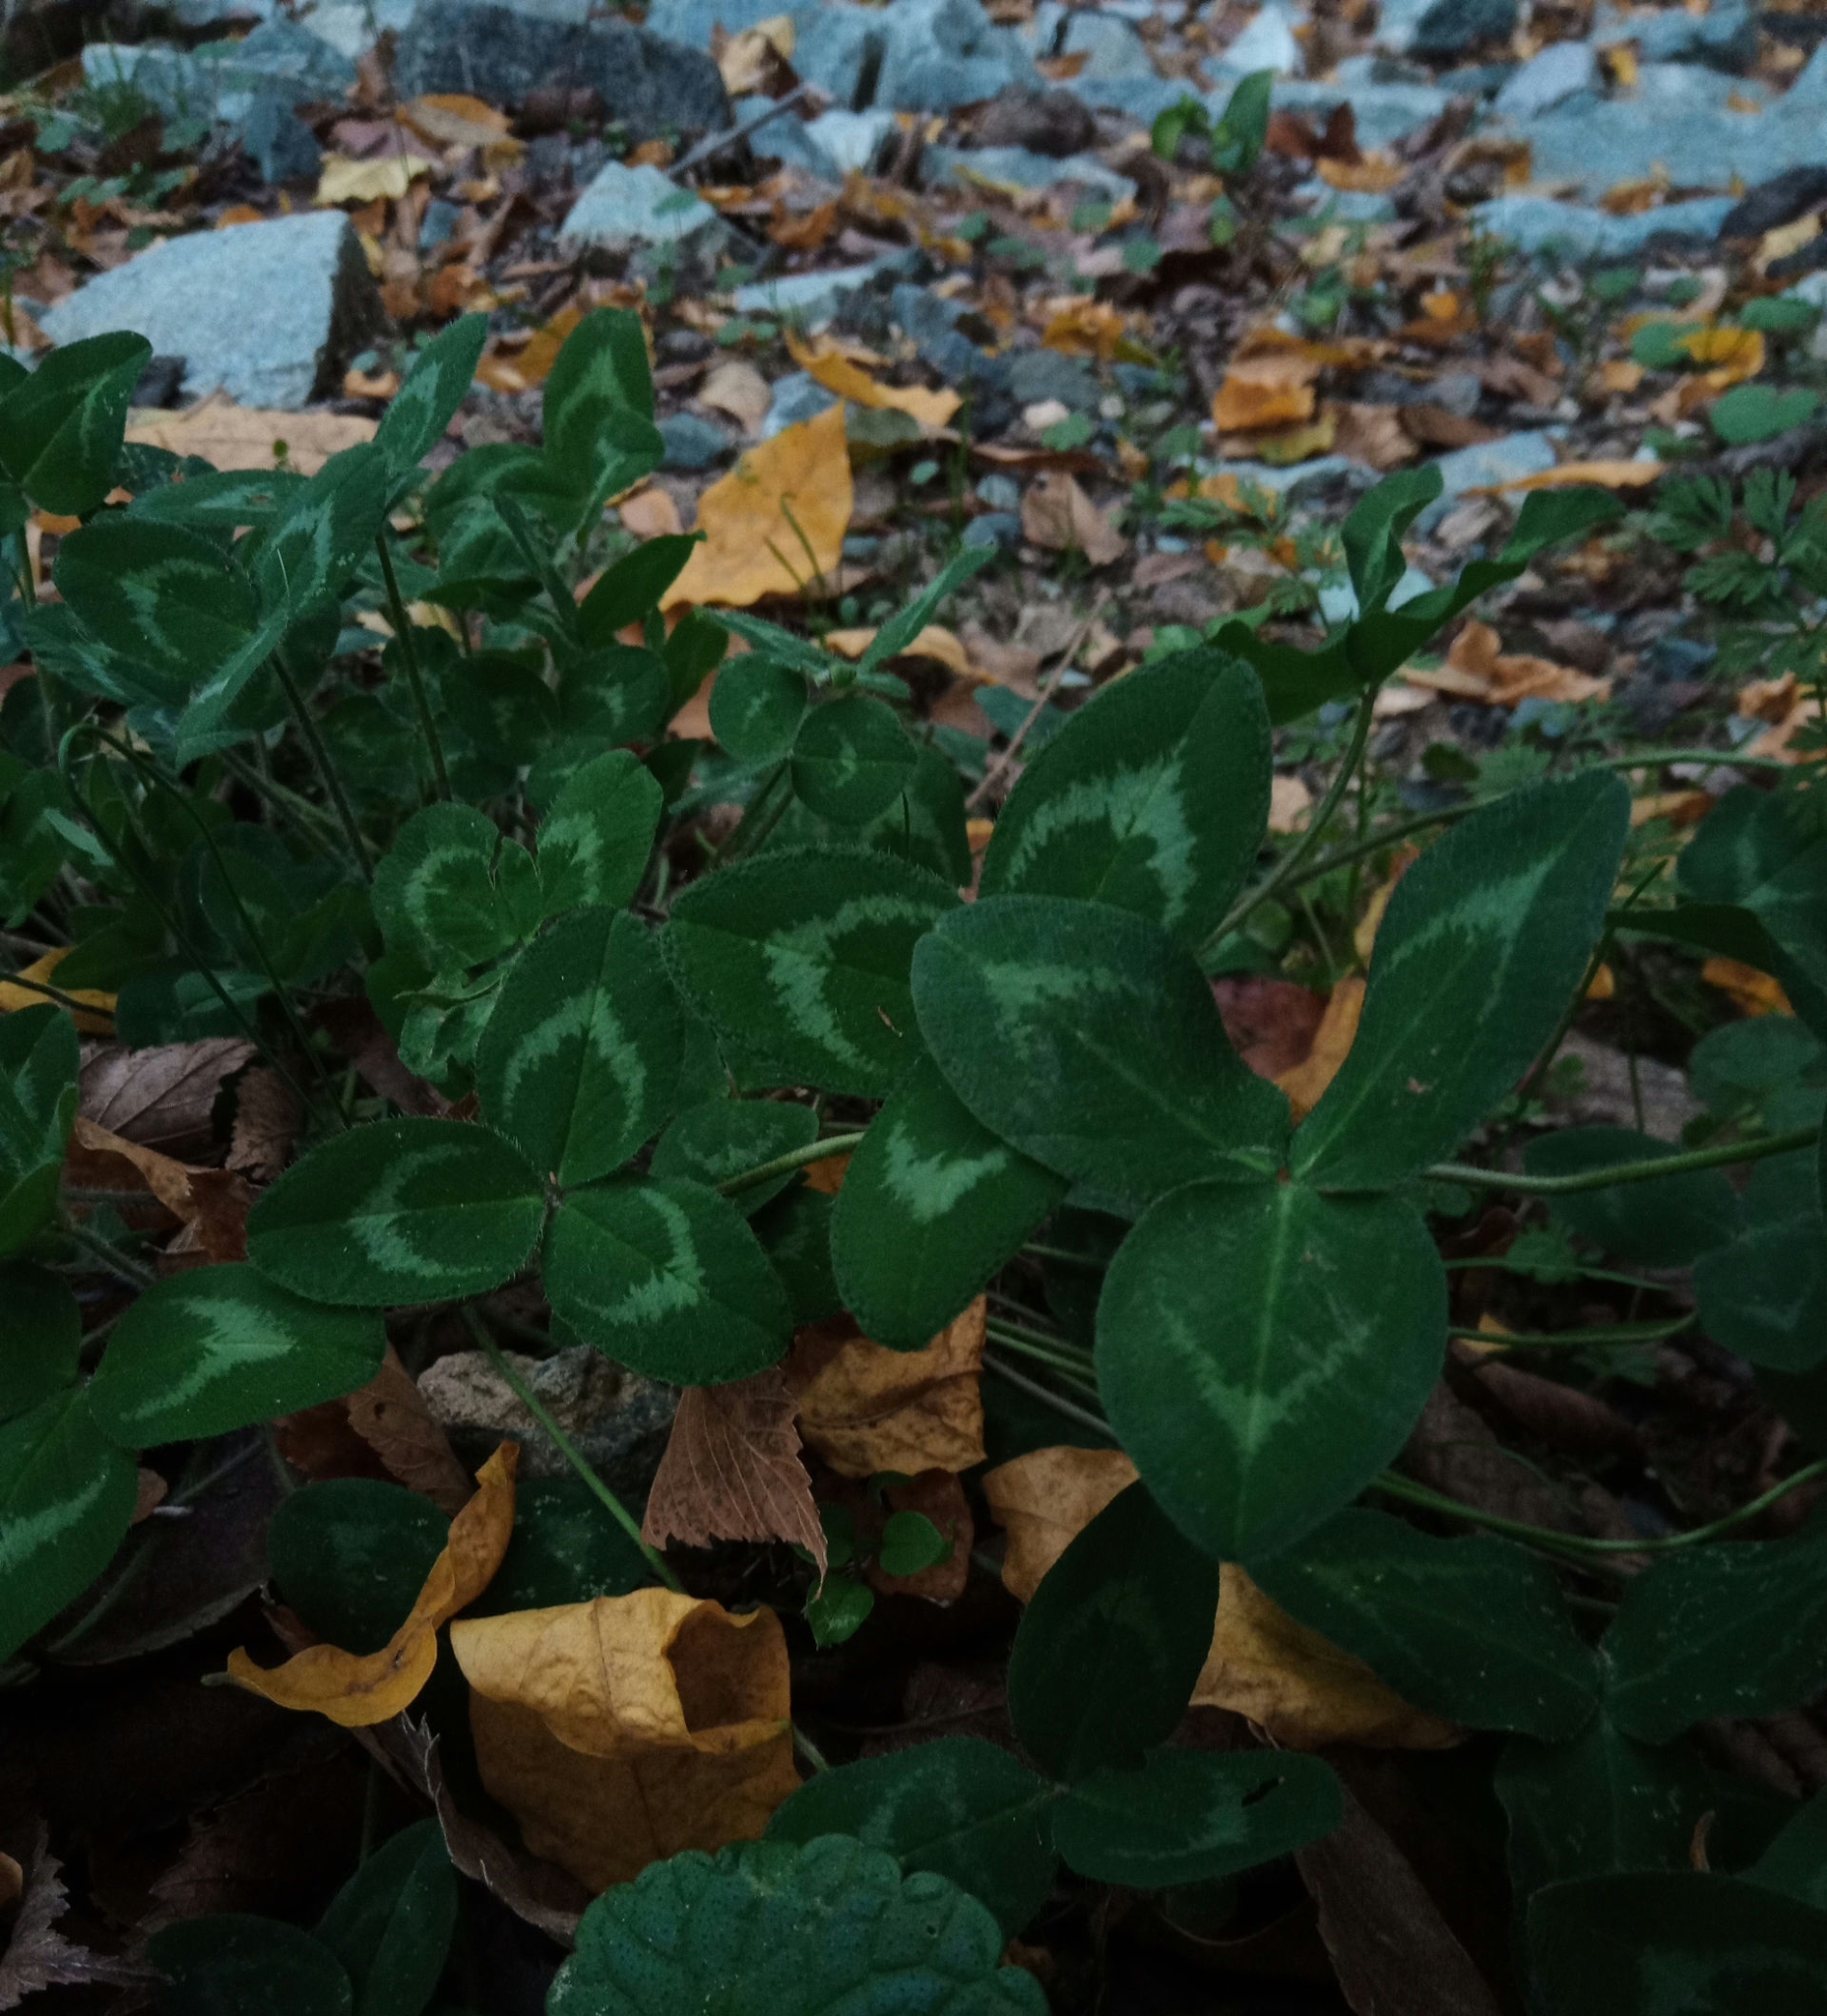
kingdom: Plantae
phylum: Tracheophyta
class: Magnoliopsida
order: Fabales
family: Fabaceae
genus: Trifolium
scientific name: Trifolium pratense
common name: Red clover
